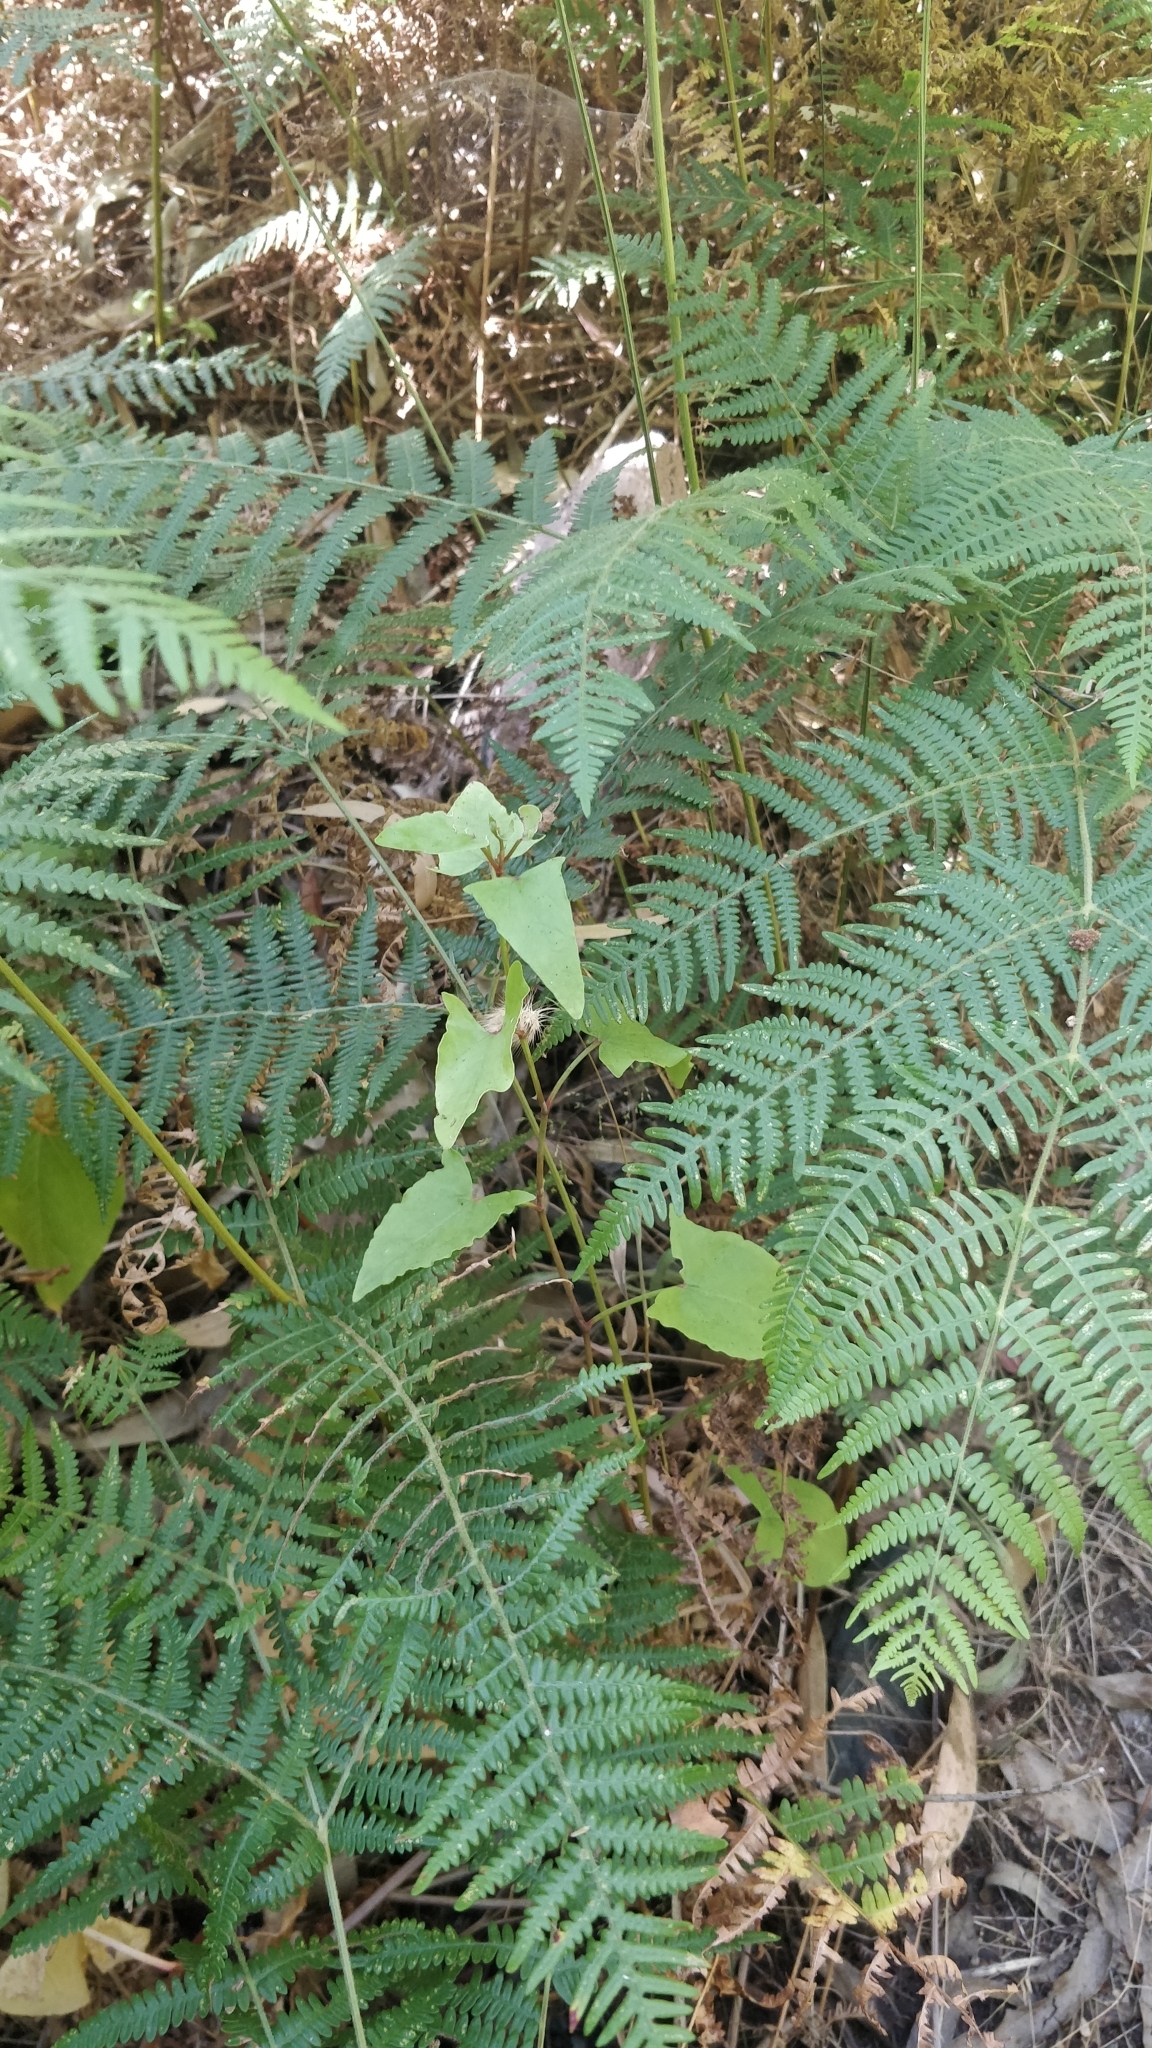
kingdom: Plantae
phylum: Tracheophyta
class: Magnoliopsida
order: Caryophyllales
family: Polygonaceae
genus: Rumex
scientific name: Rumex maderensis
